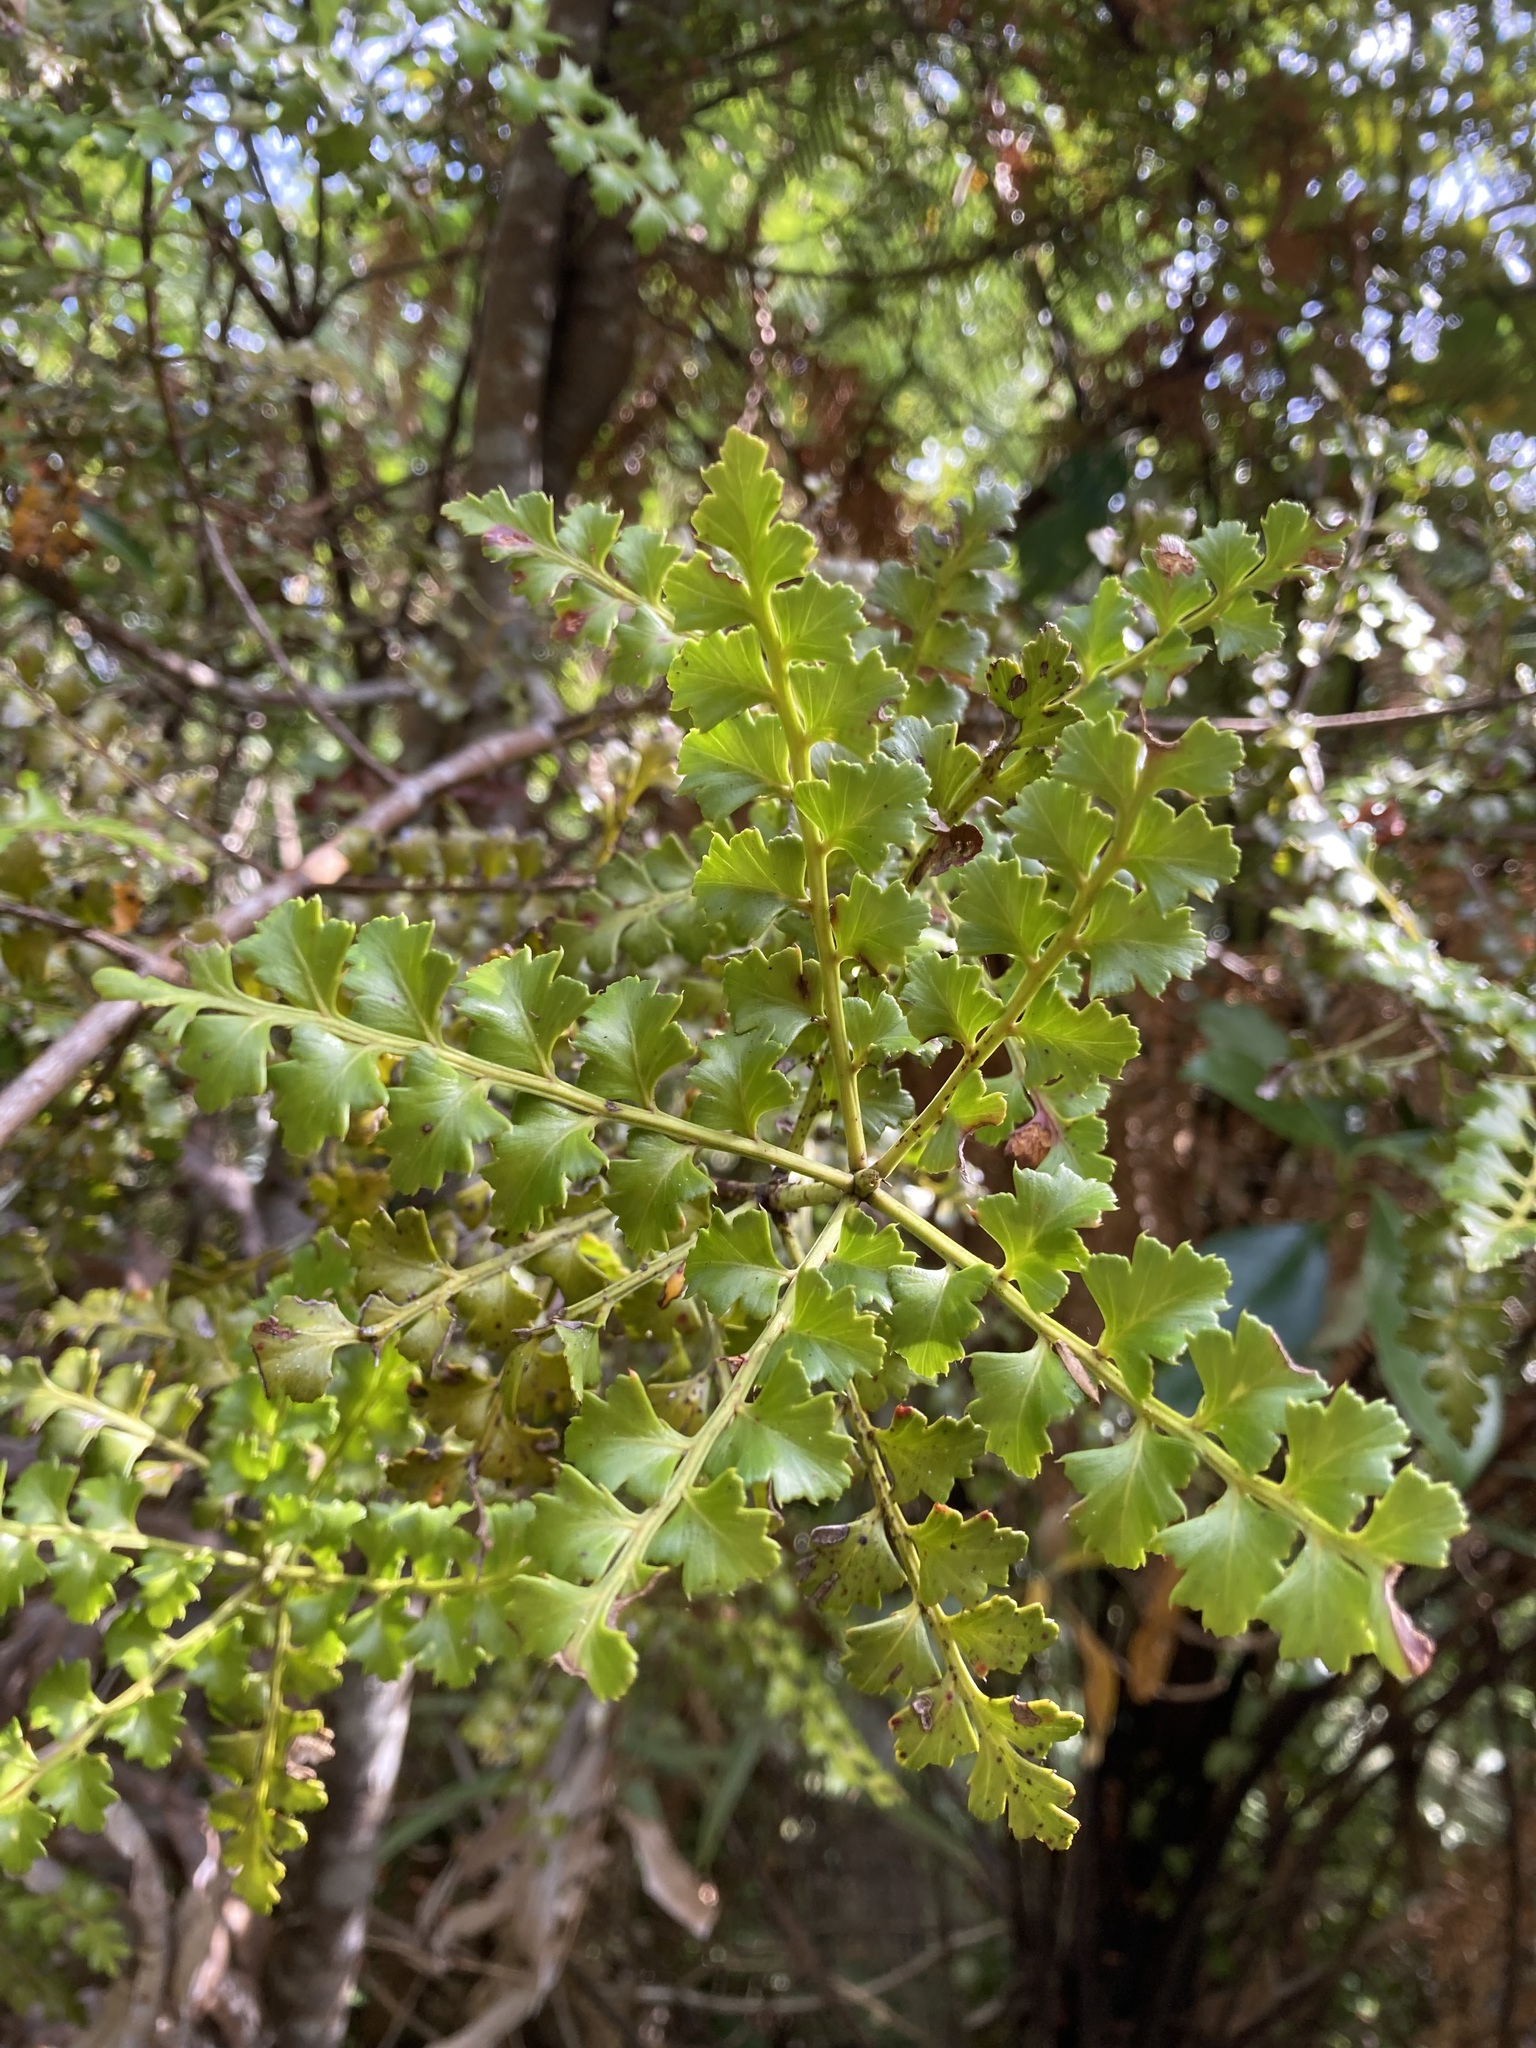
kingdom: Plantae
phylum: Tracheophyta
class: Pinopsida
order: Pinales
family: Phyllocladaceae
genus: Phyllocladus
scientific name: Phyllocladus trichomanoides
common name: Celery pine
